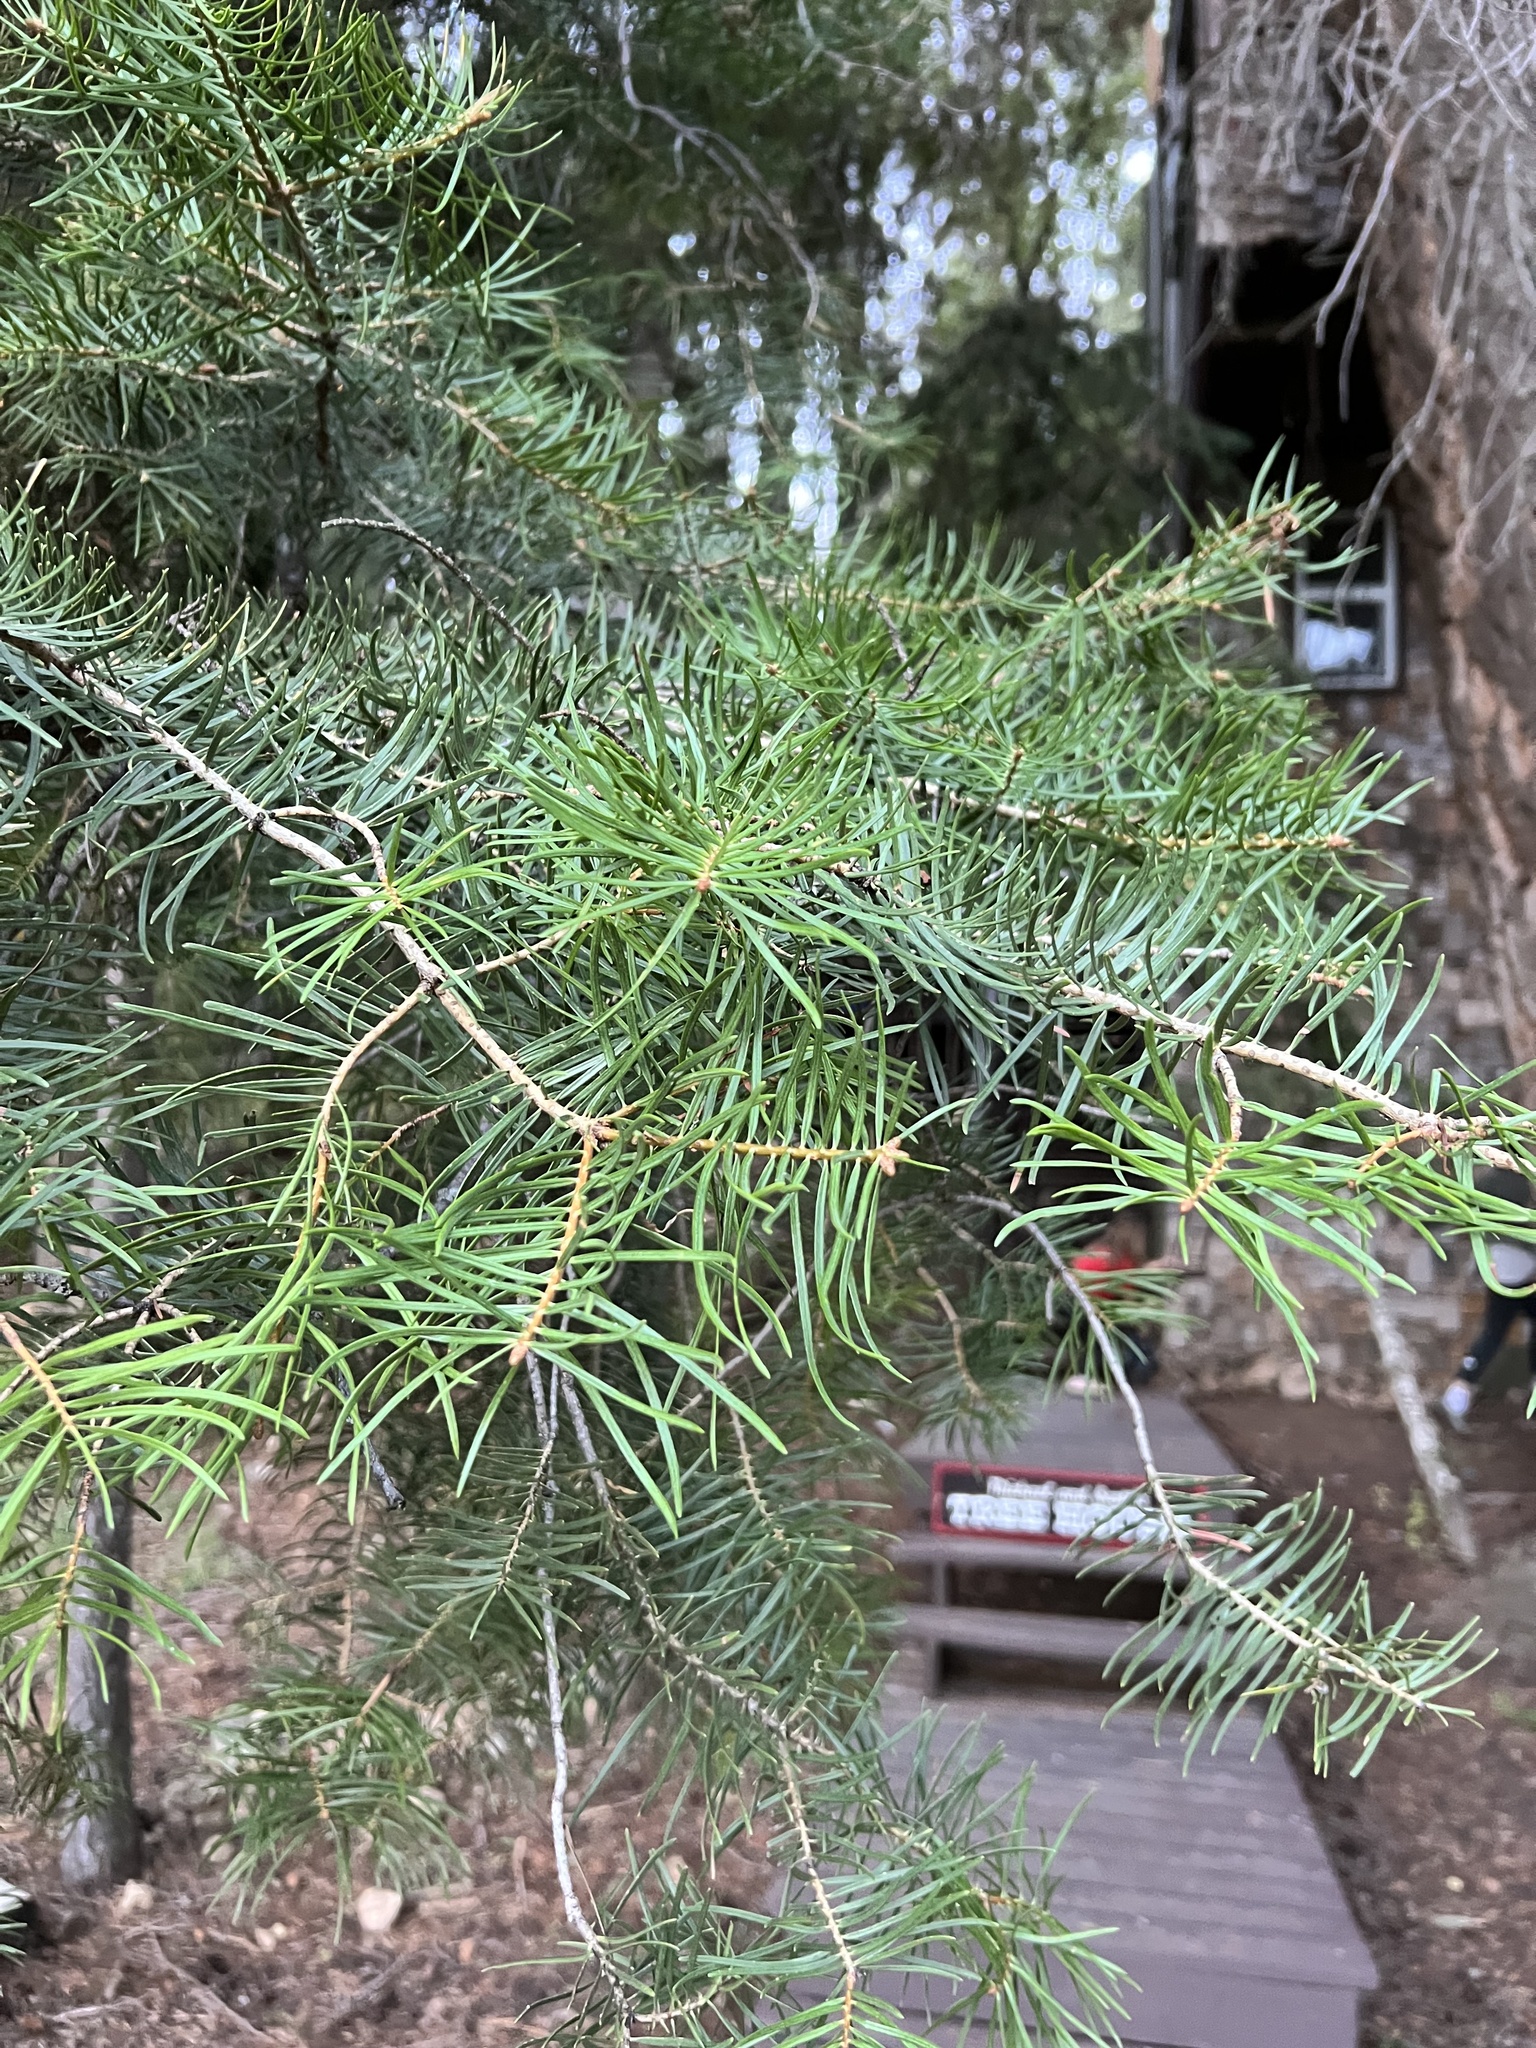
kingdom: Plantae
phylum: Tracheophyta
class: Pinopsida
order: Pinales
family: Pinaceae
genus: Abies
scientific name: Abies concolor
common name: Colorado fir
